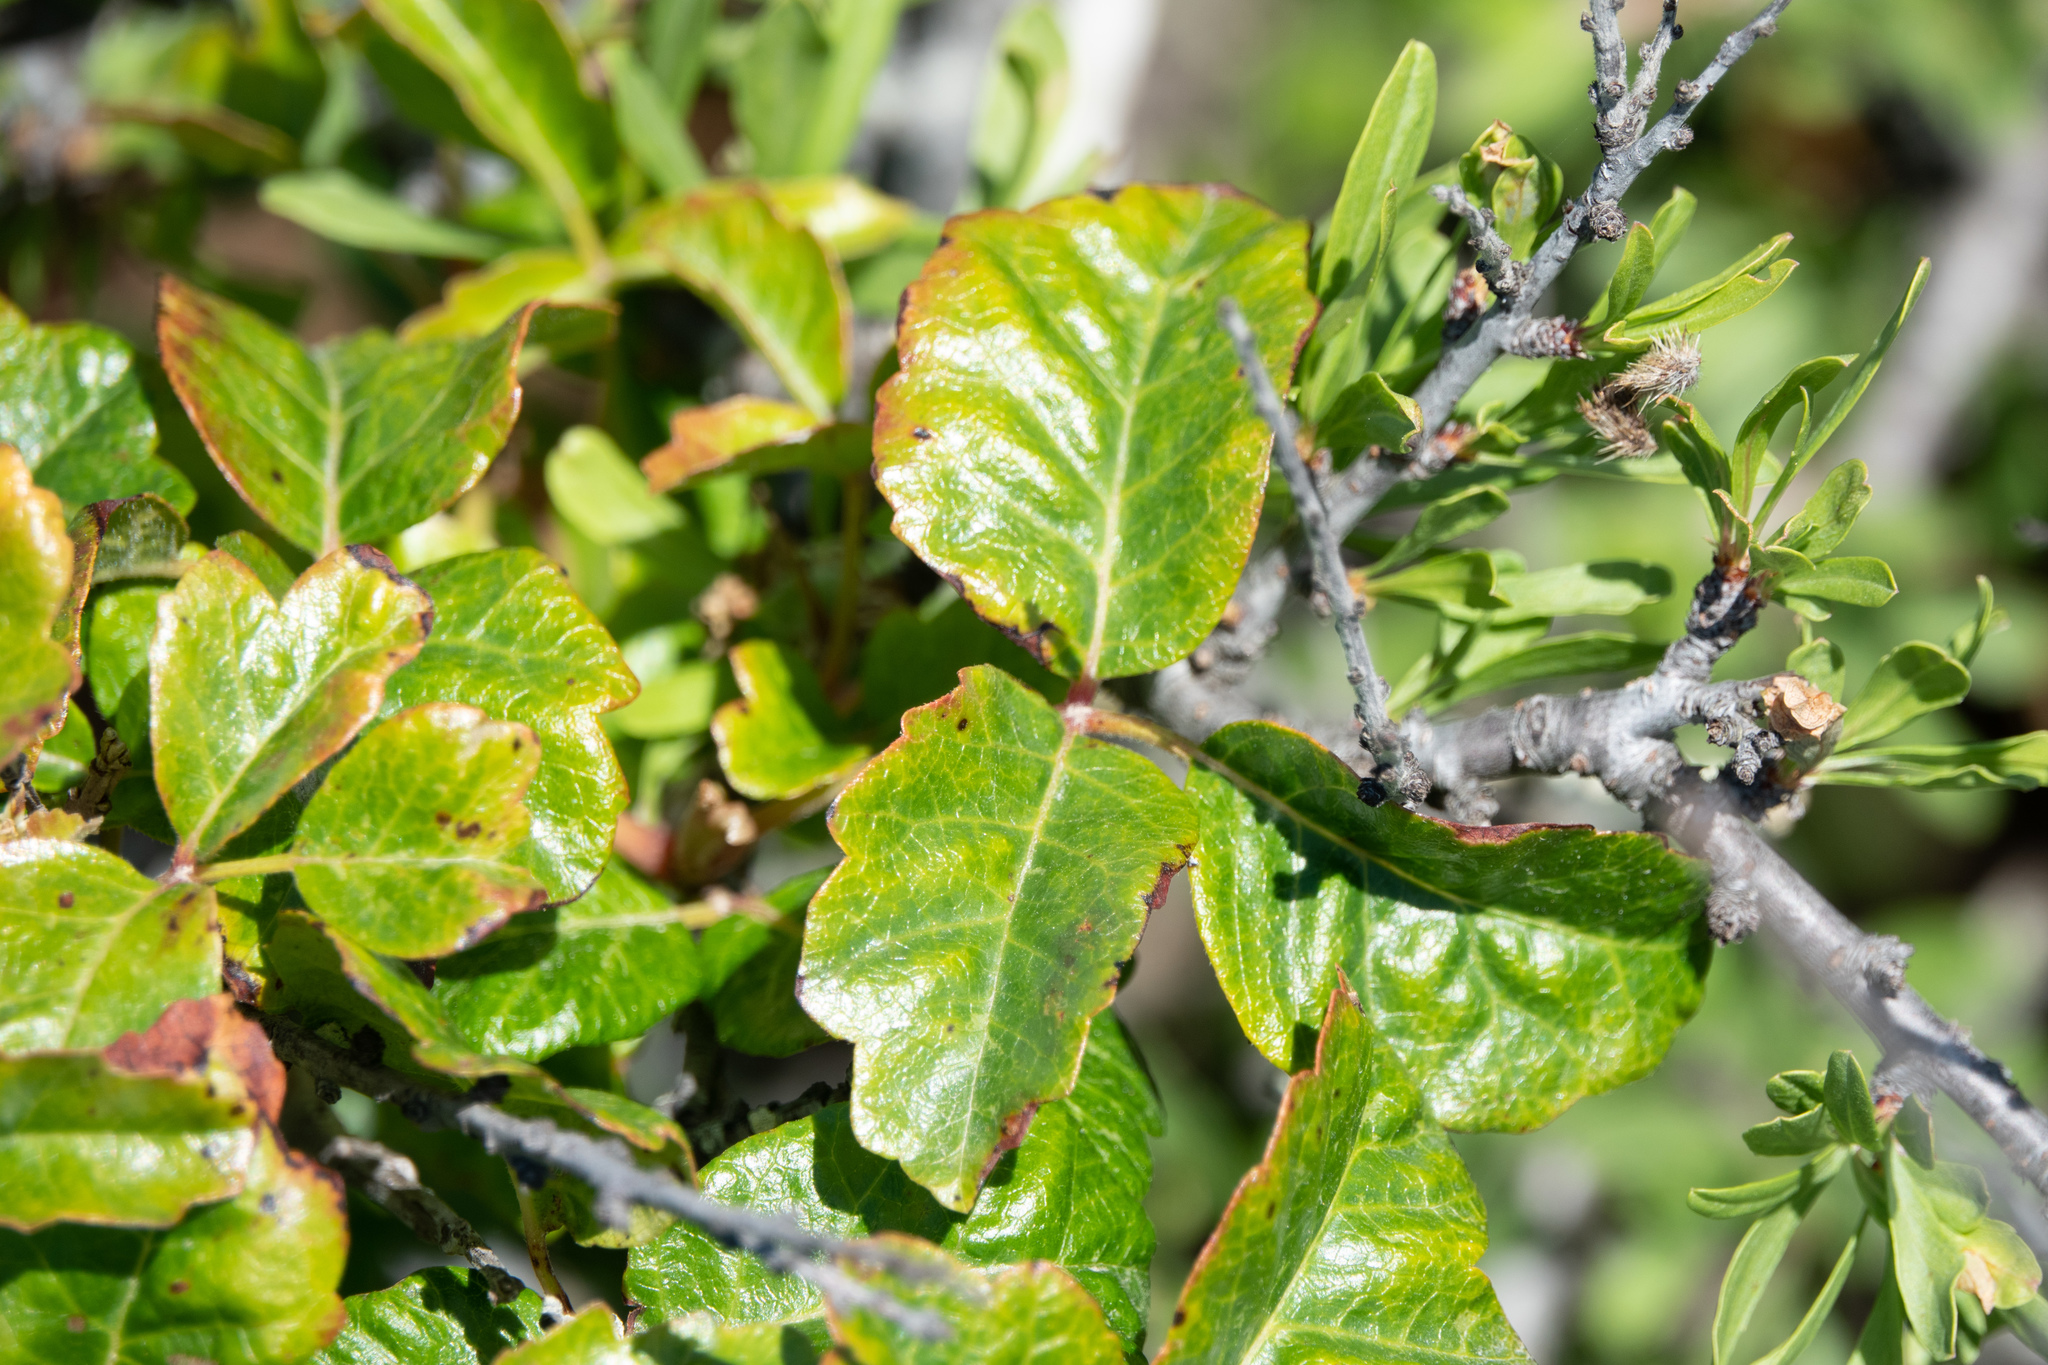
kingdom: Plantae
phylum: Tracheophyta
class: Magnoliopsida
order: Sapindales
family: Anacardiaceae
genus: Toxicodendron
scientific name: Toxicodendron diversilobum
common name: Pacific poison-oak
